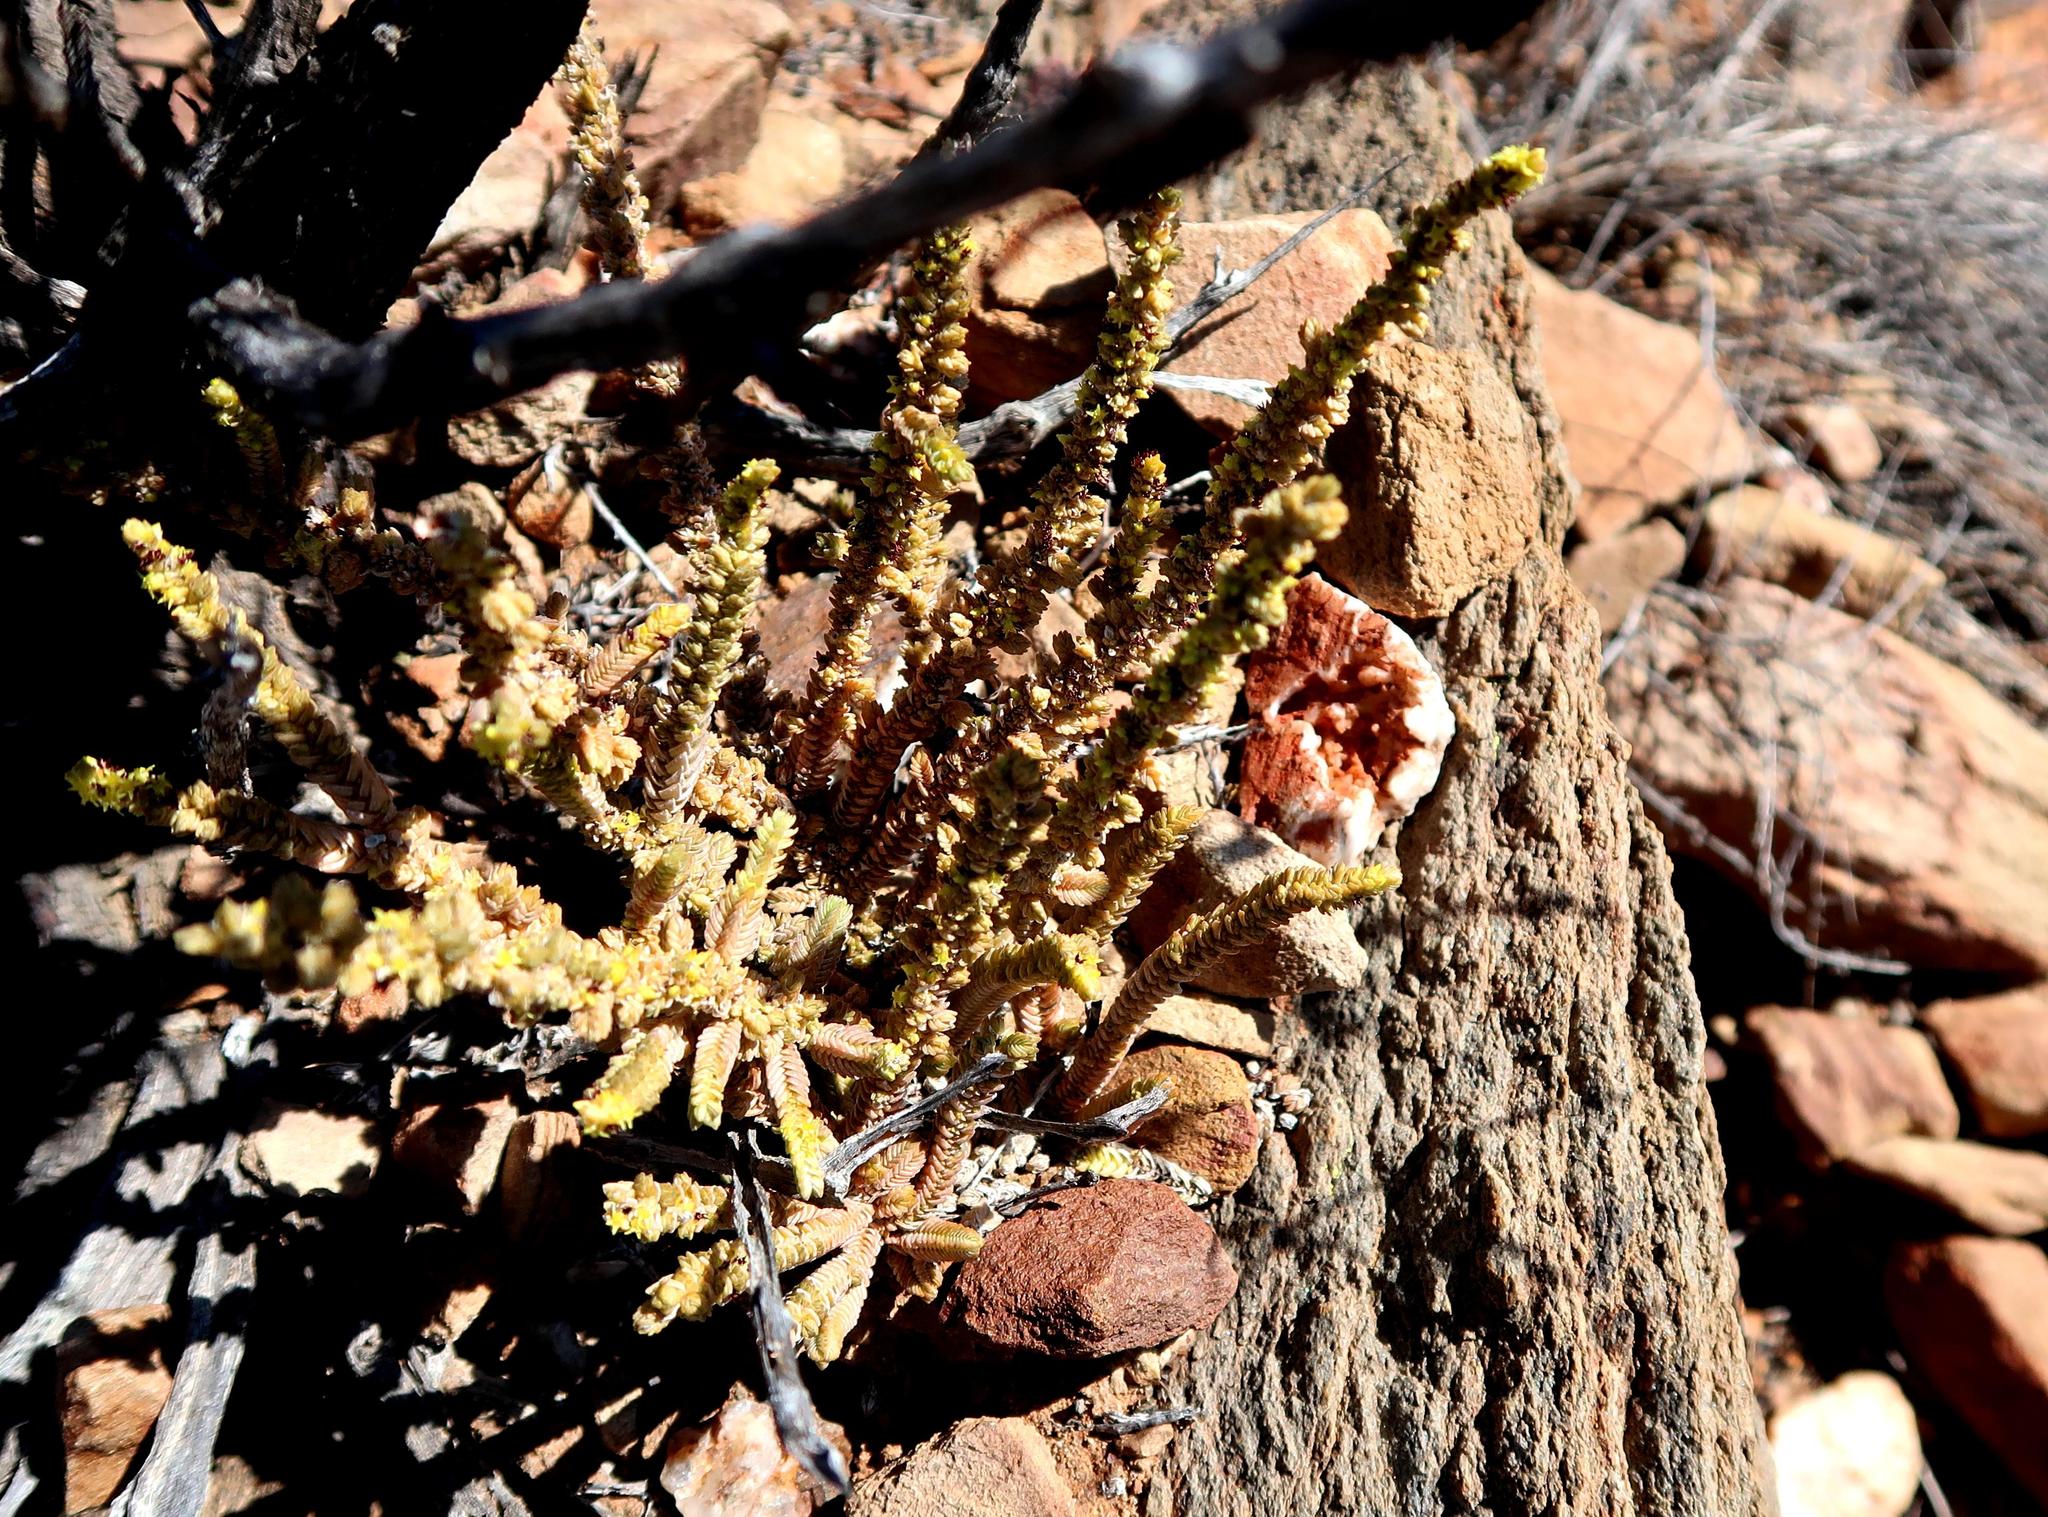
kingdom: Plantae
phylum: Tracheophyta
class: Magnoliopsida
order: Saxifragales
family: Crassulaceae
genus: Crassula
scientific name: Crassula muscosa
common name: Toy-cypress
